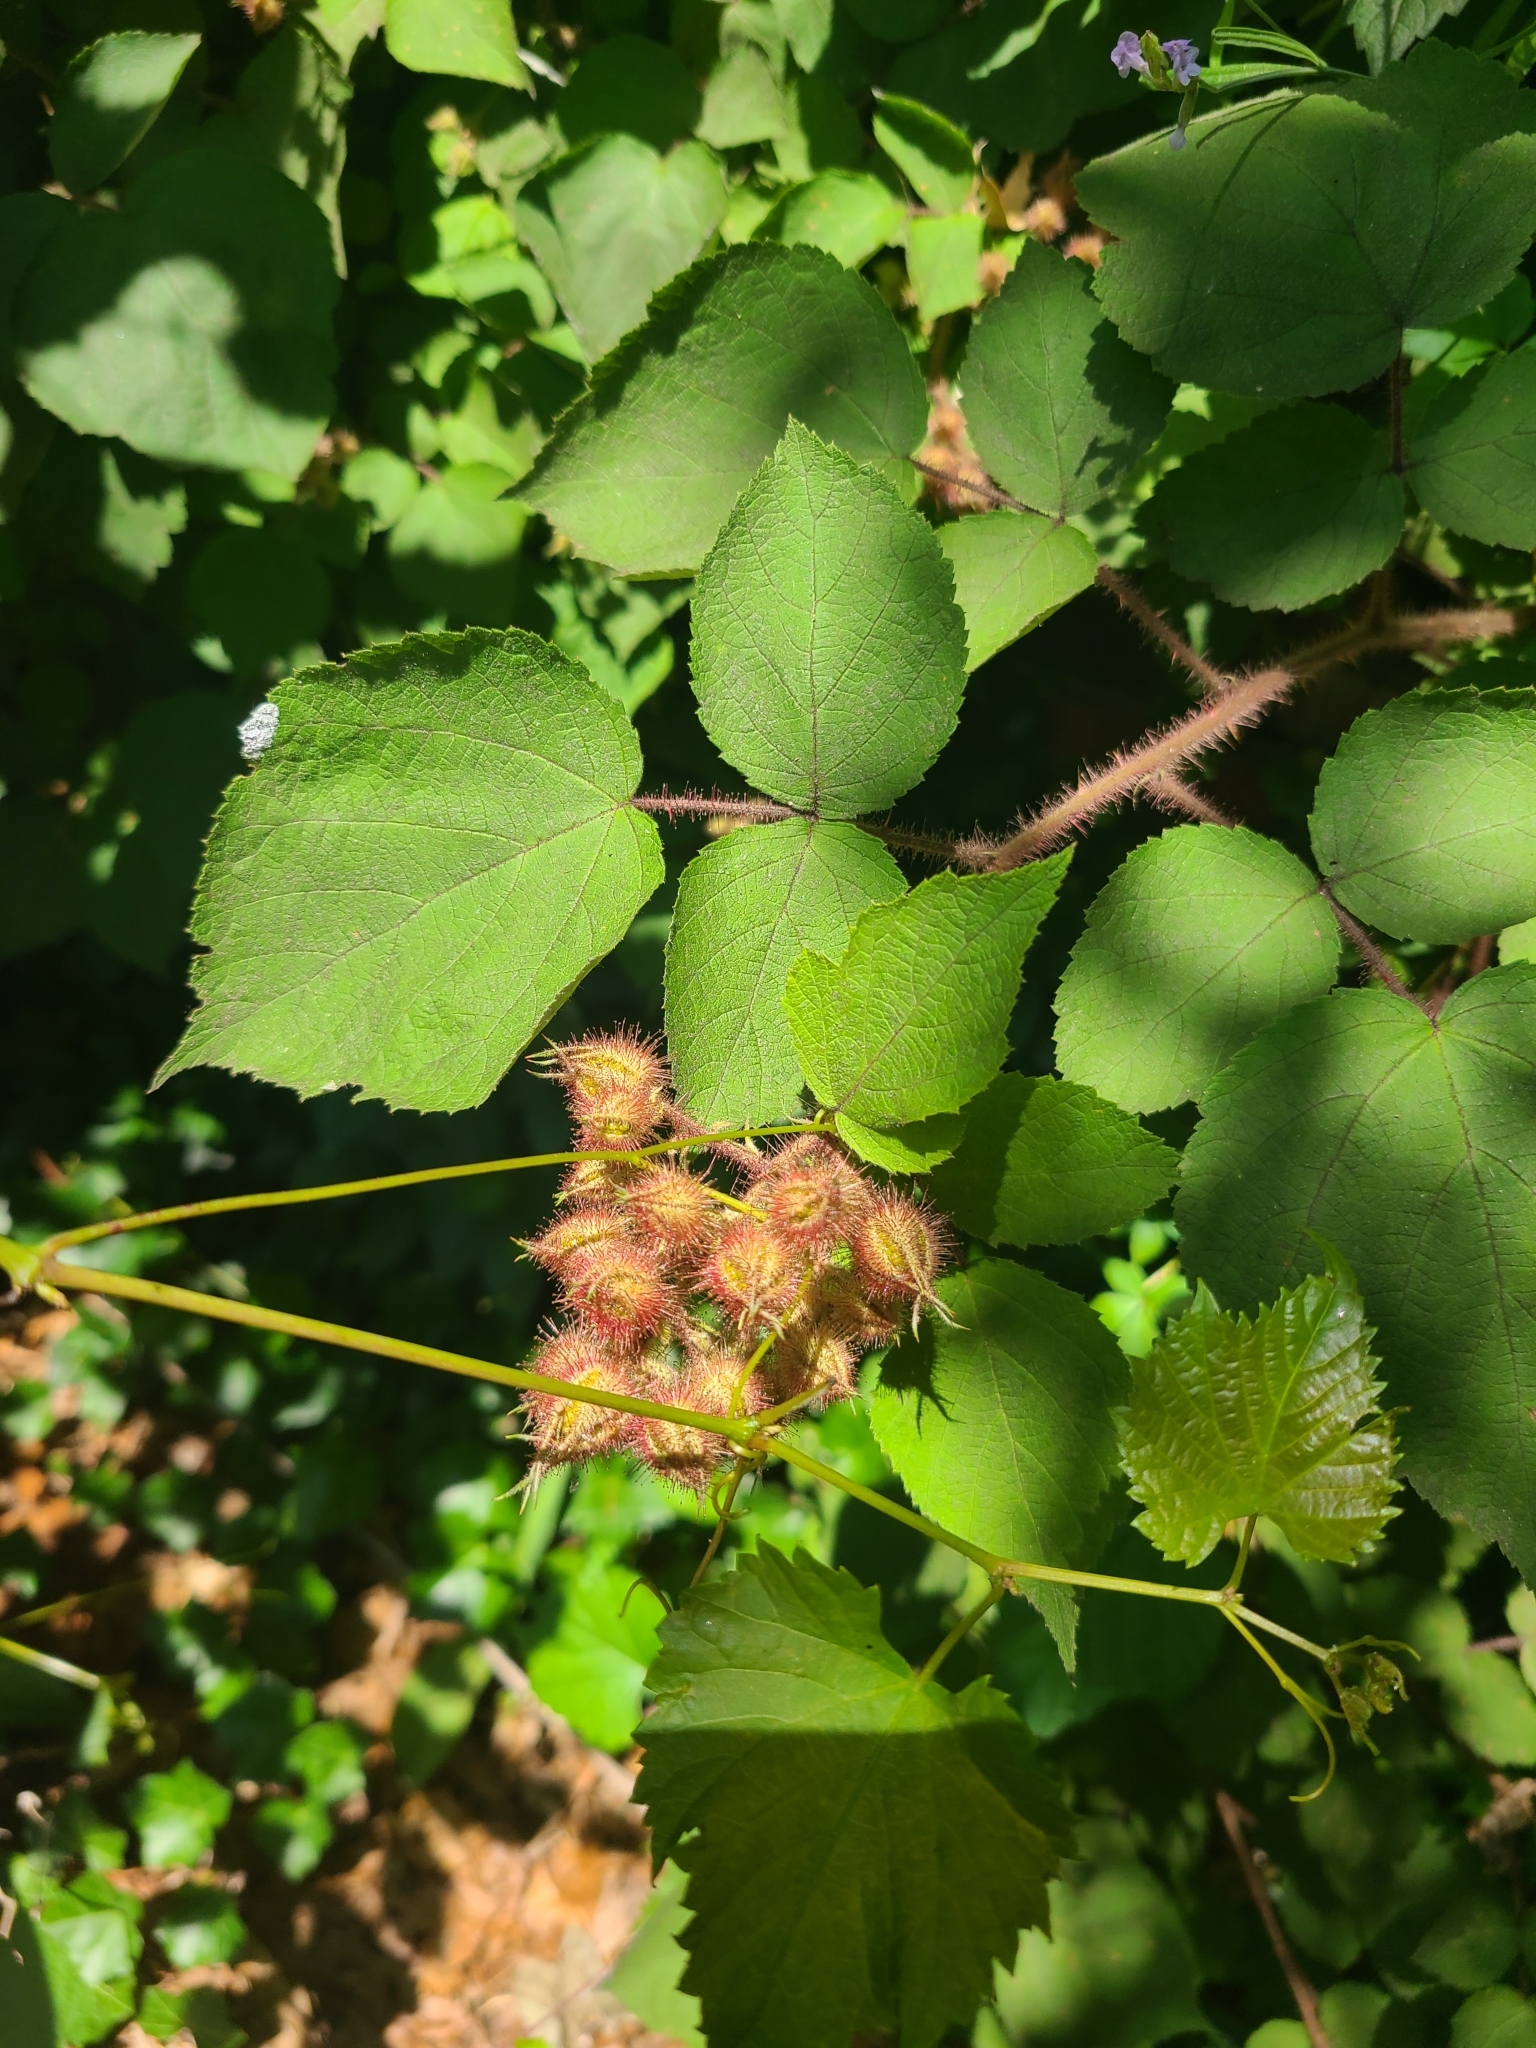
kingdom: Plantae
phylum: Tracheophyta
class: Magnoliopsida
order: Rosales
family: Rosaceae
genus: Rubus
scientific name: Rubus phoenicolasius
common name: Japanese wineberry
